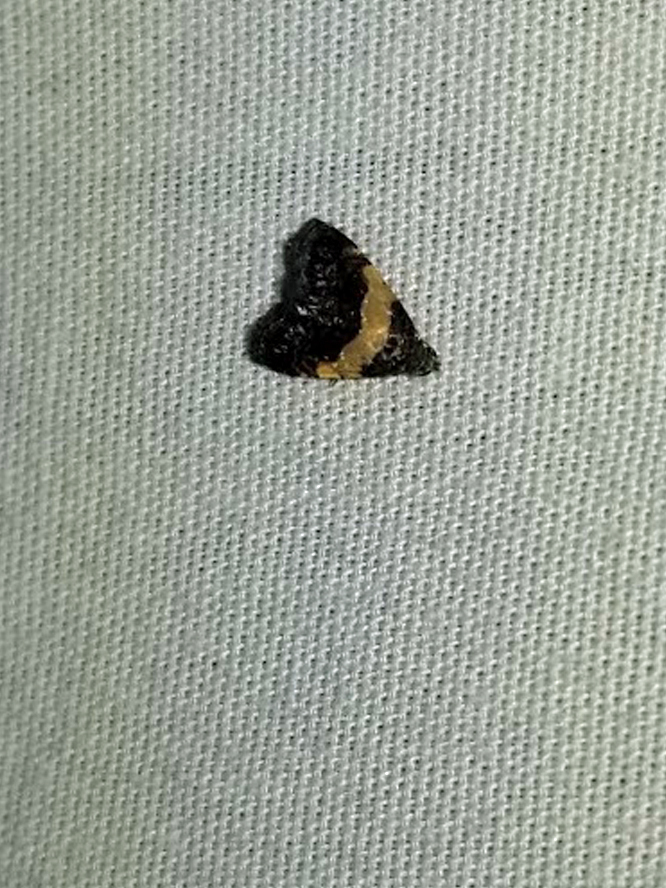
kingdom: Animalia
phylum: Arthropoda
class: Insecta
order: Lepidoptera
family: Noctuidae
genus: Tripudia
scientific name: Tripudia flavofasciata
